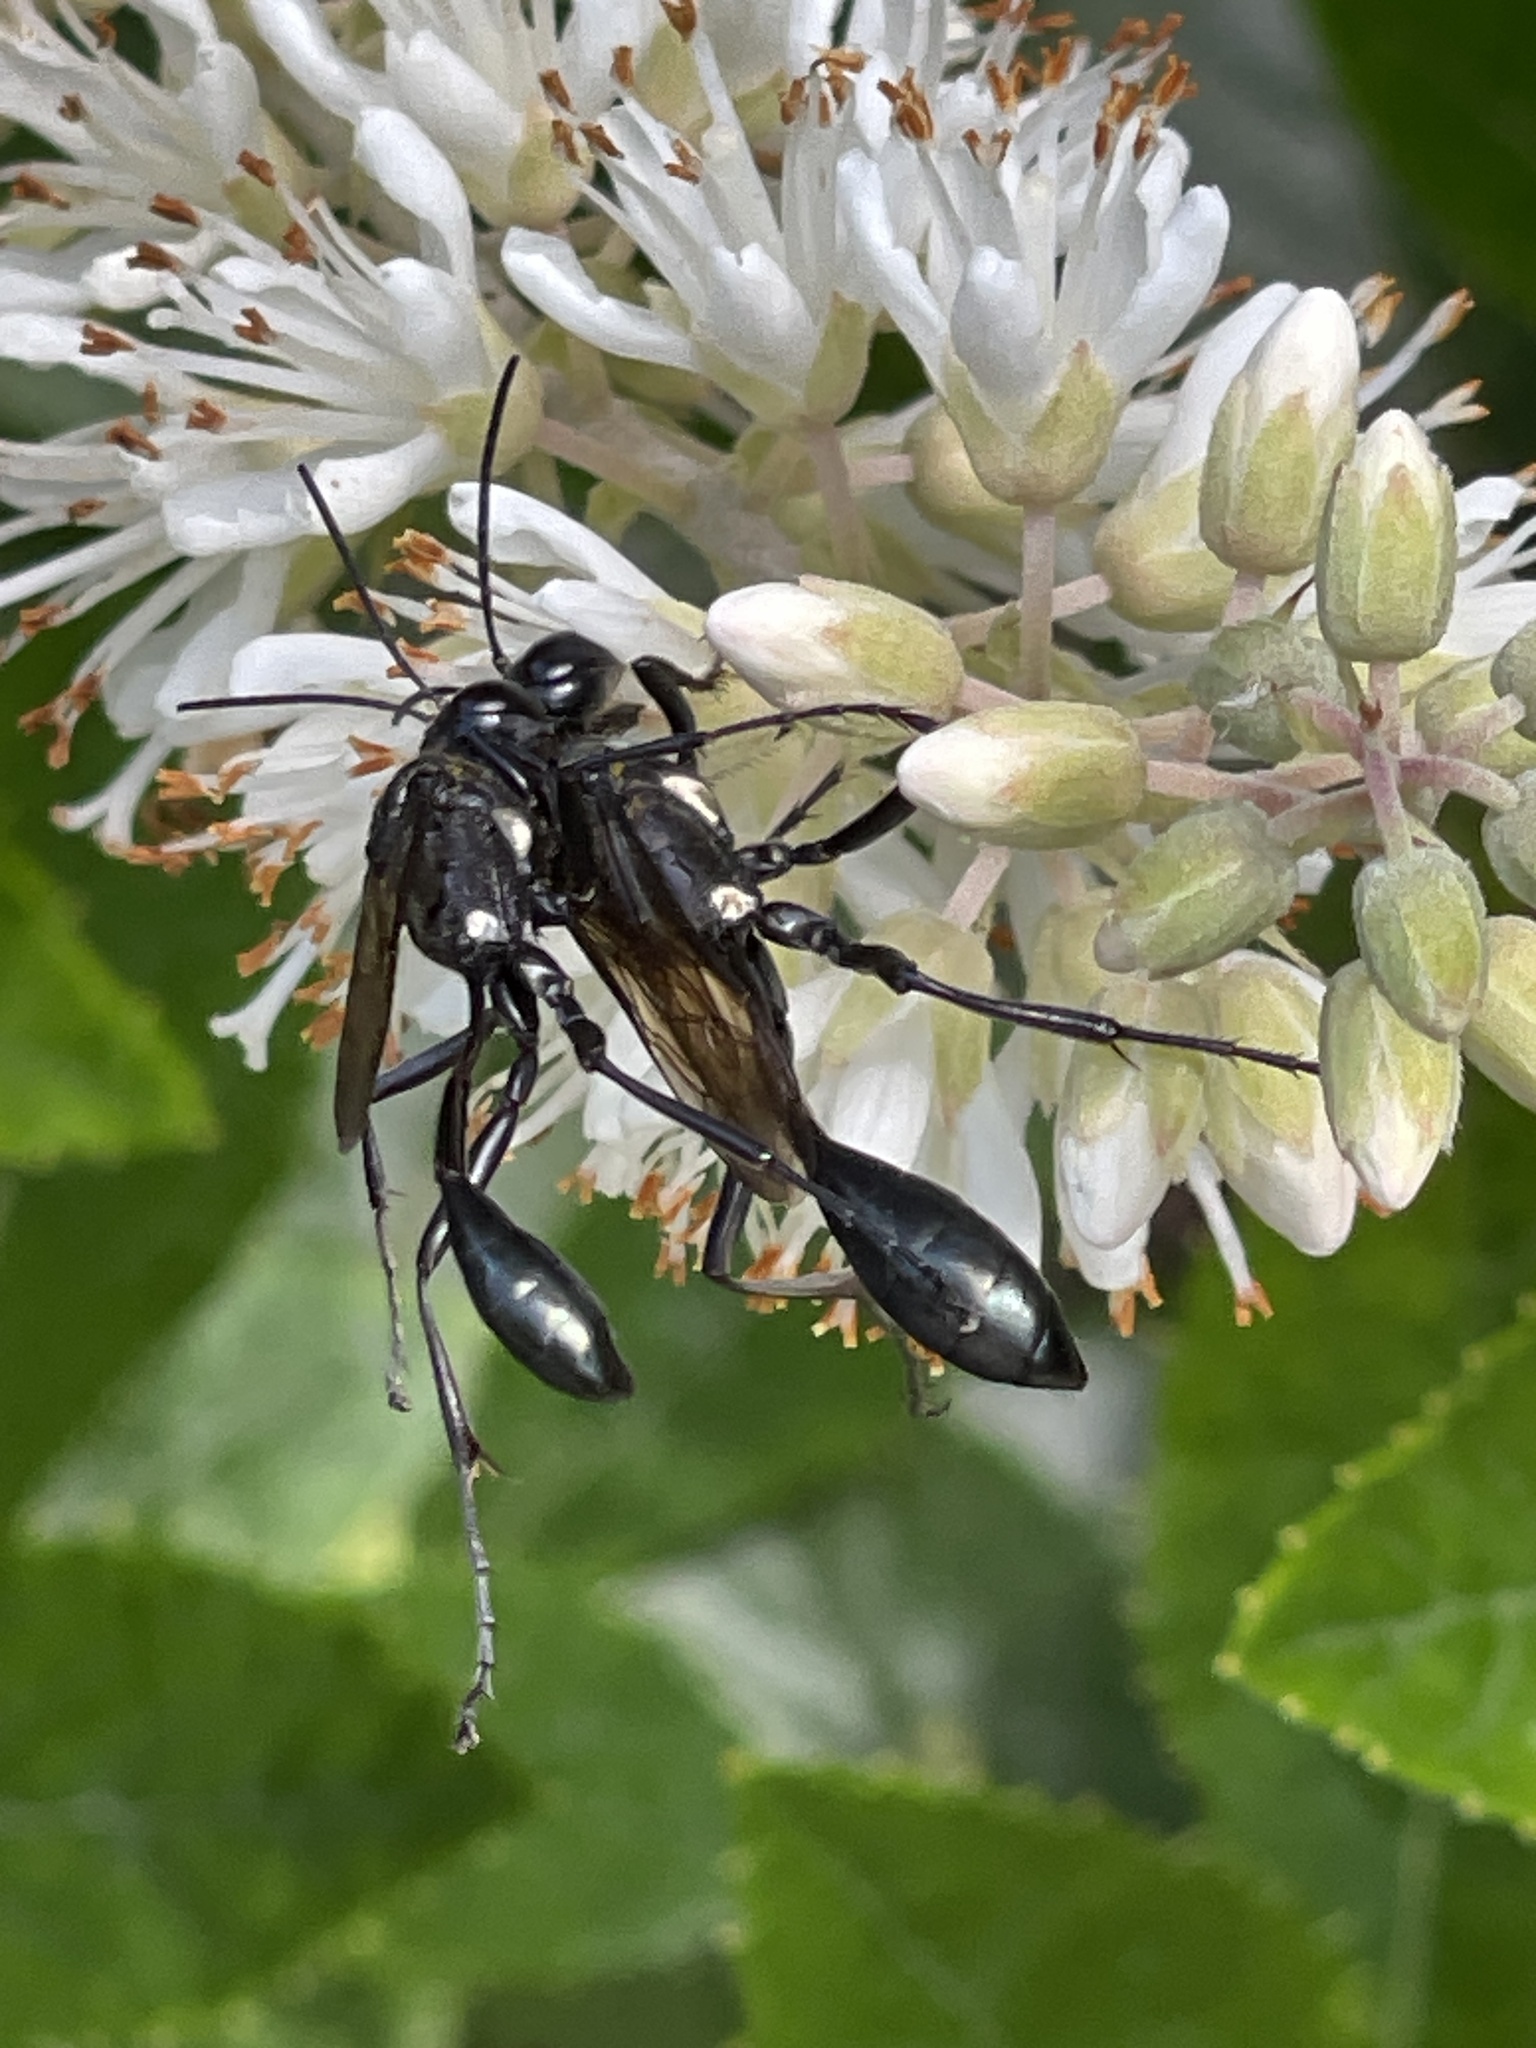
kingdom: Animalia
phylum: Arthropoda
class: Insecta
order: Hymenoptera
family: Sphecidae
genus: Eremnophila
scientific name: Eremnophila aureonotata
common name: Gold-marked thread-waisted wasp
